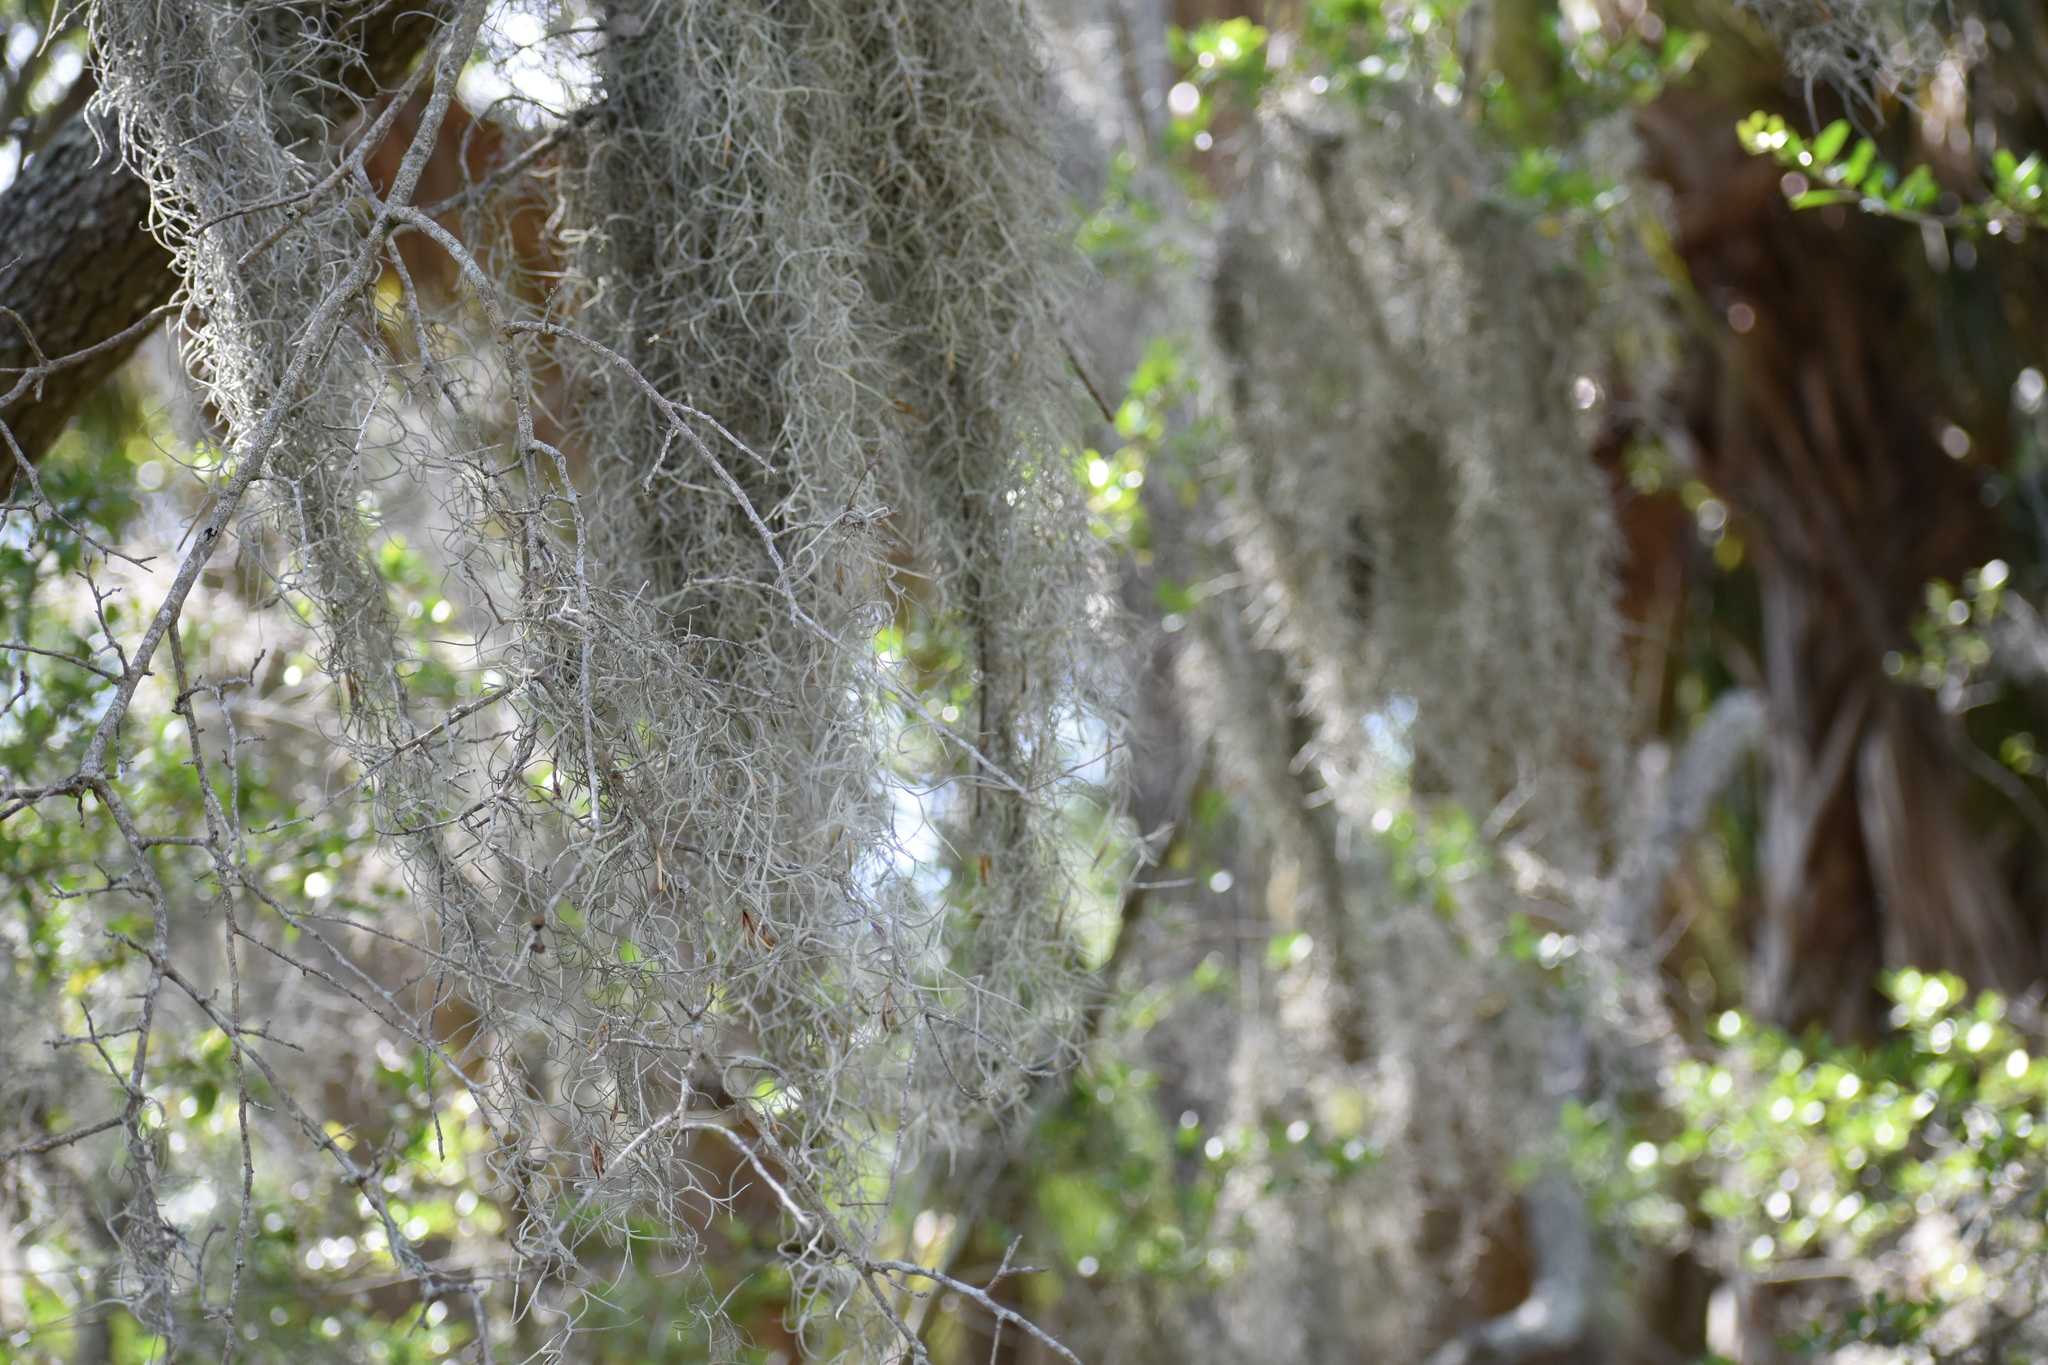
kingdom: Plantae
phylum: Tracheophyta
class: Liliopsida
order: Poales
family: Bromeliaceae
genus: Tillandsia
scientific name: Tillandsia usneoides
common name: Spanish moss
